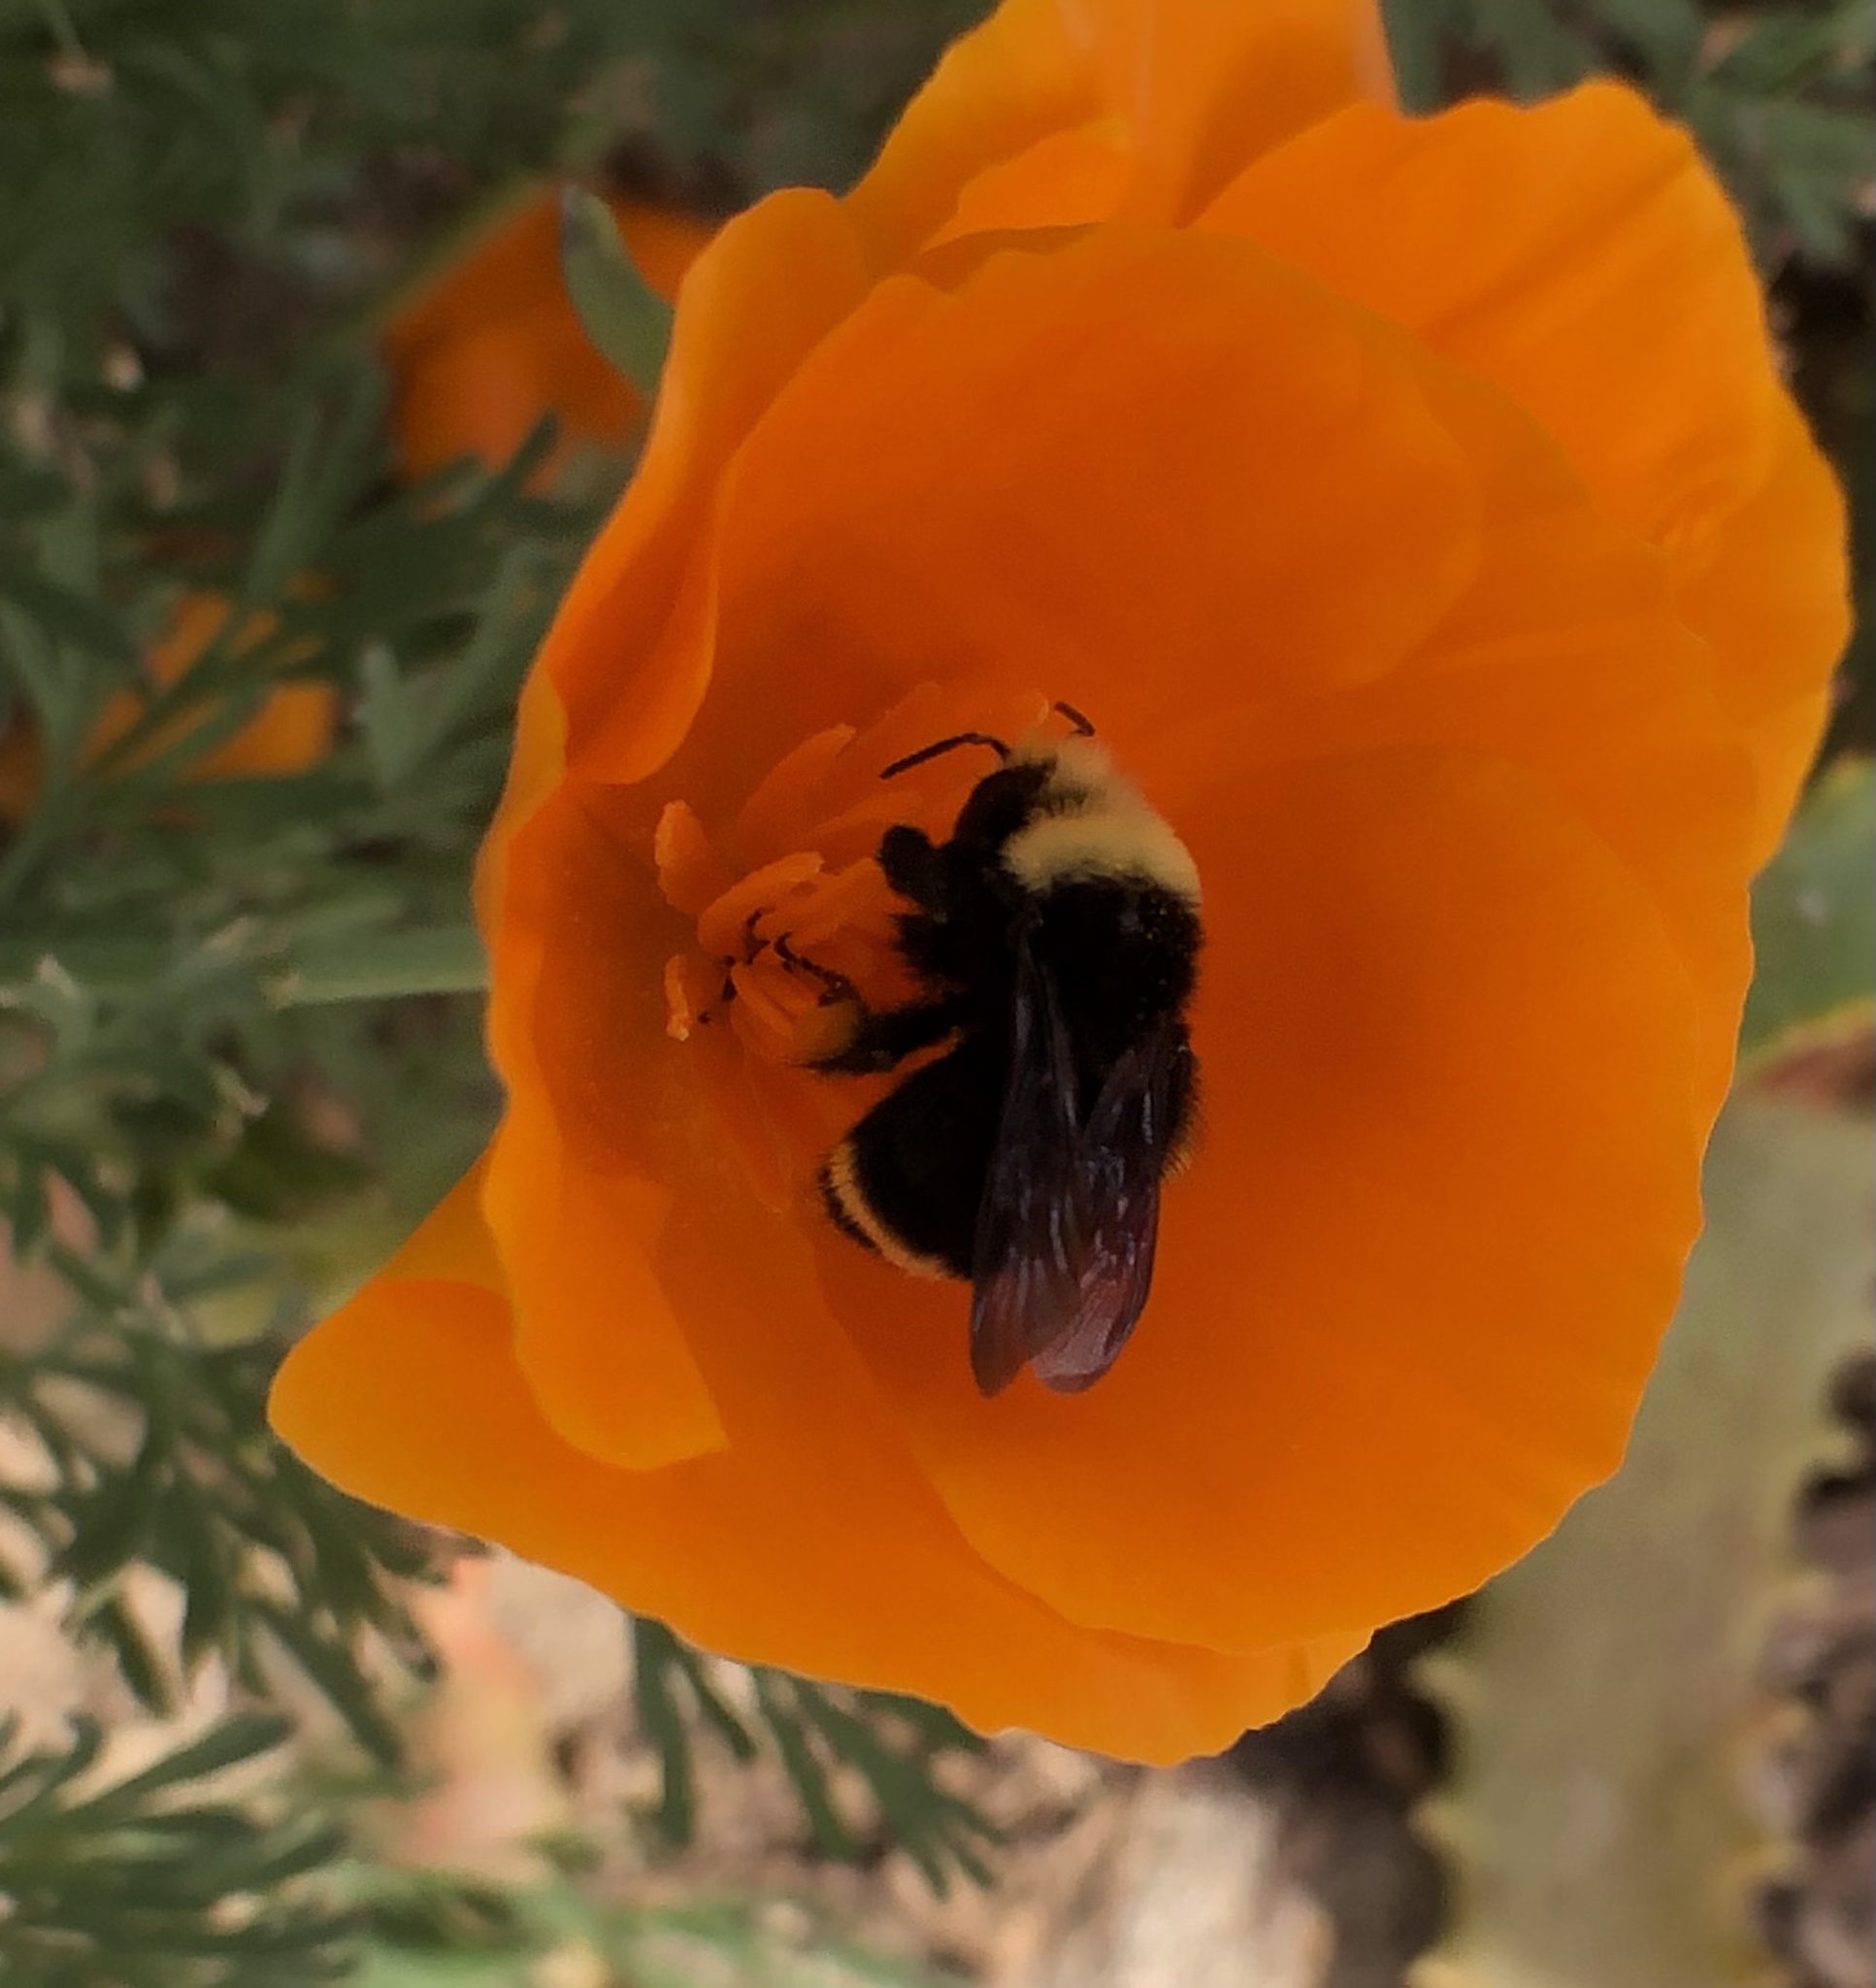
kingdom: Animalia
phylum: Arthropoda
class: Insecta
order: Hymenoptera
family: Apidae
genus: Bombus
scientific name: Bombus vosnesenskii
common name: Vosnesensky bumble bee
